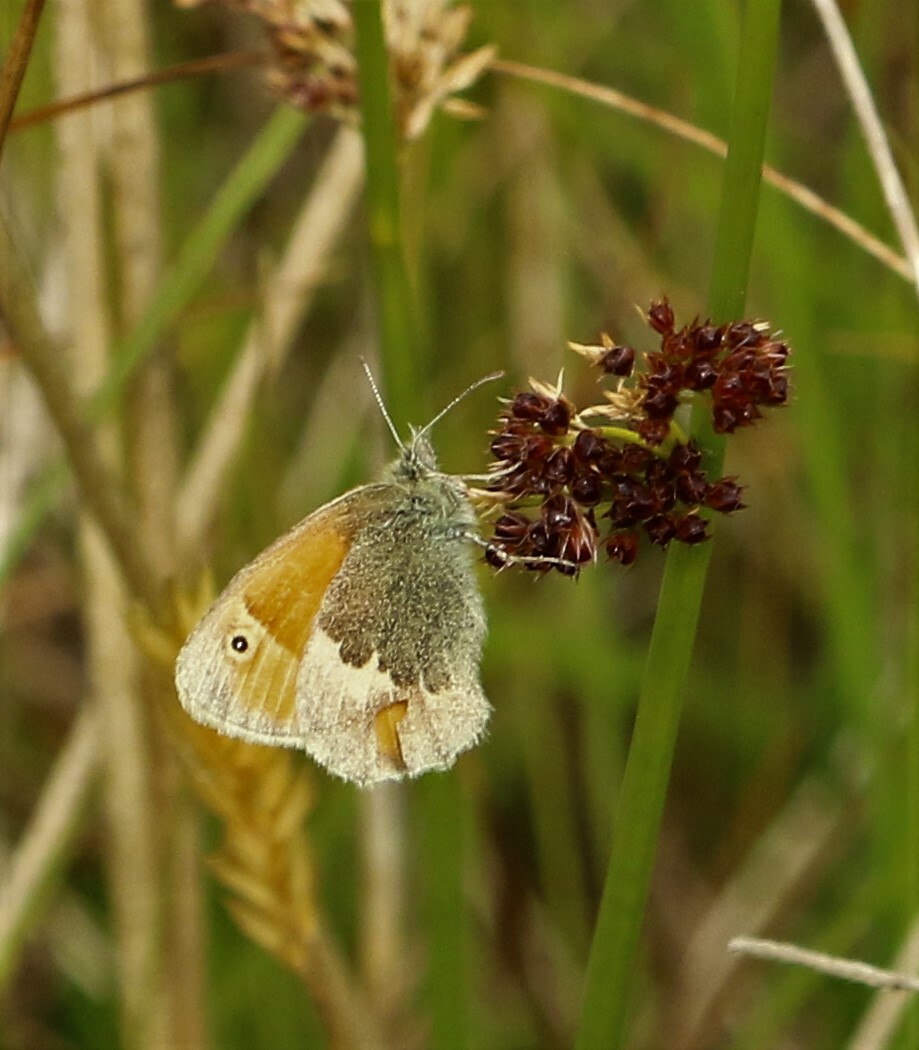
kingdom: Animalia
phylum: Arthropoda
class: Insecta
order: Lepidoptera
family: Nymphalidae
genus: Coenonympha
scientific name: Coenonympha pamphilus
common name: Small heath
